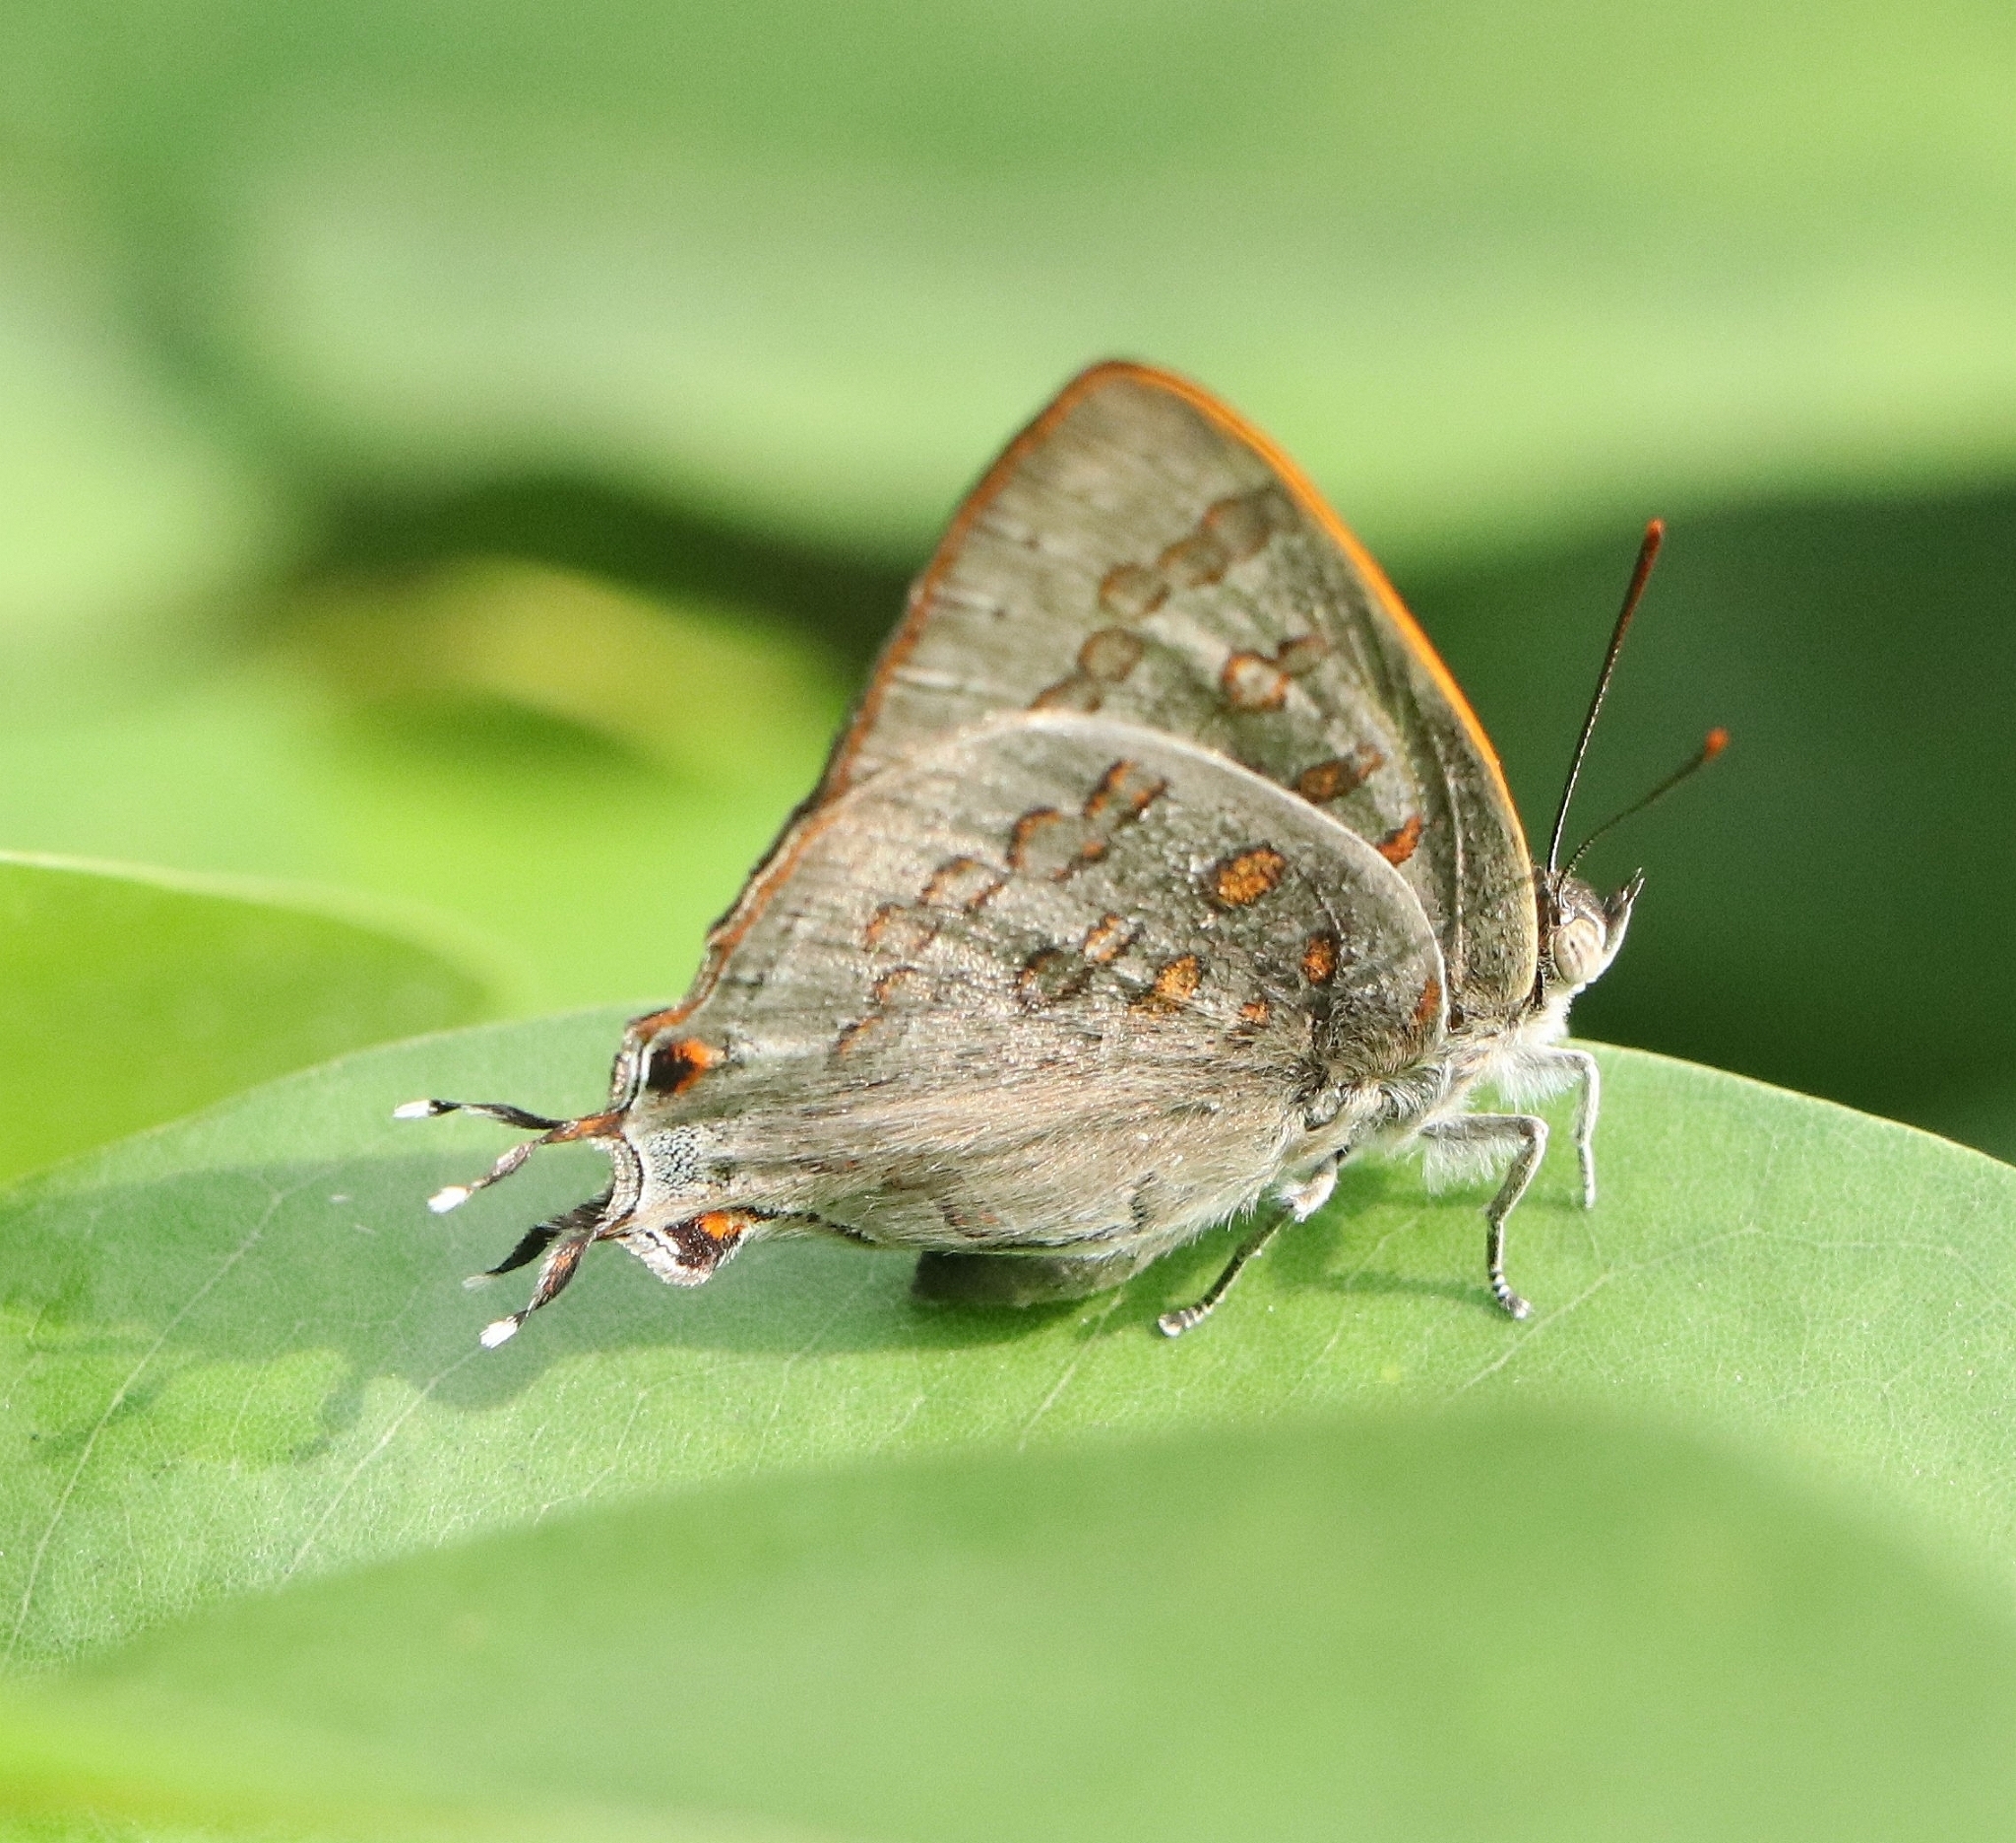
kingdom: Animalia
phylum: Arthropoda
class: Insecta
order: Lepidoptera
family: Lycaenidae
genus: Zesius
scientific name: Zesius chrysomallus
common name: Redspot
